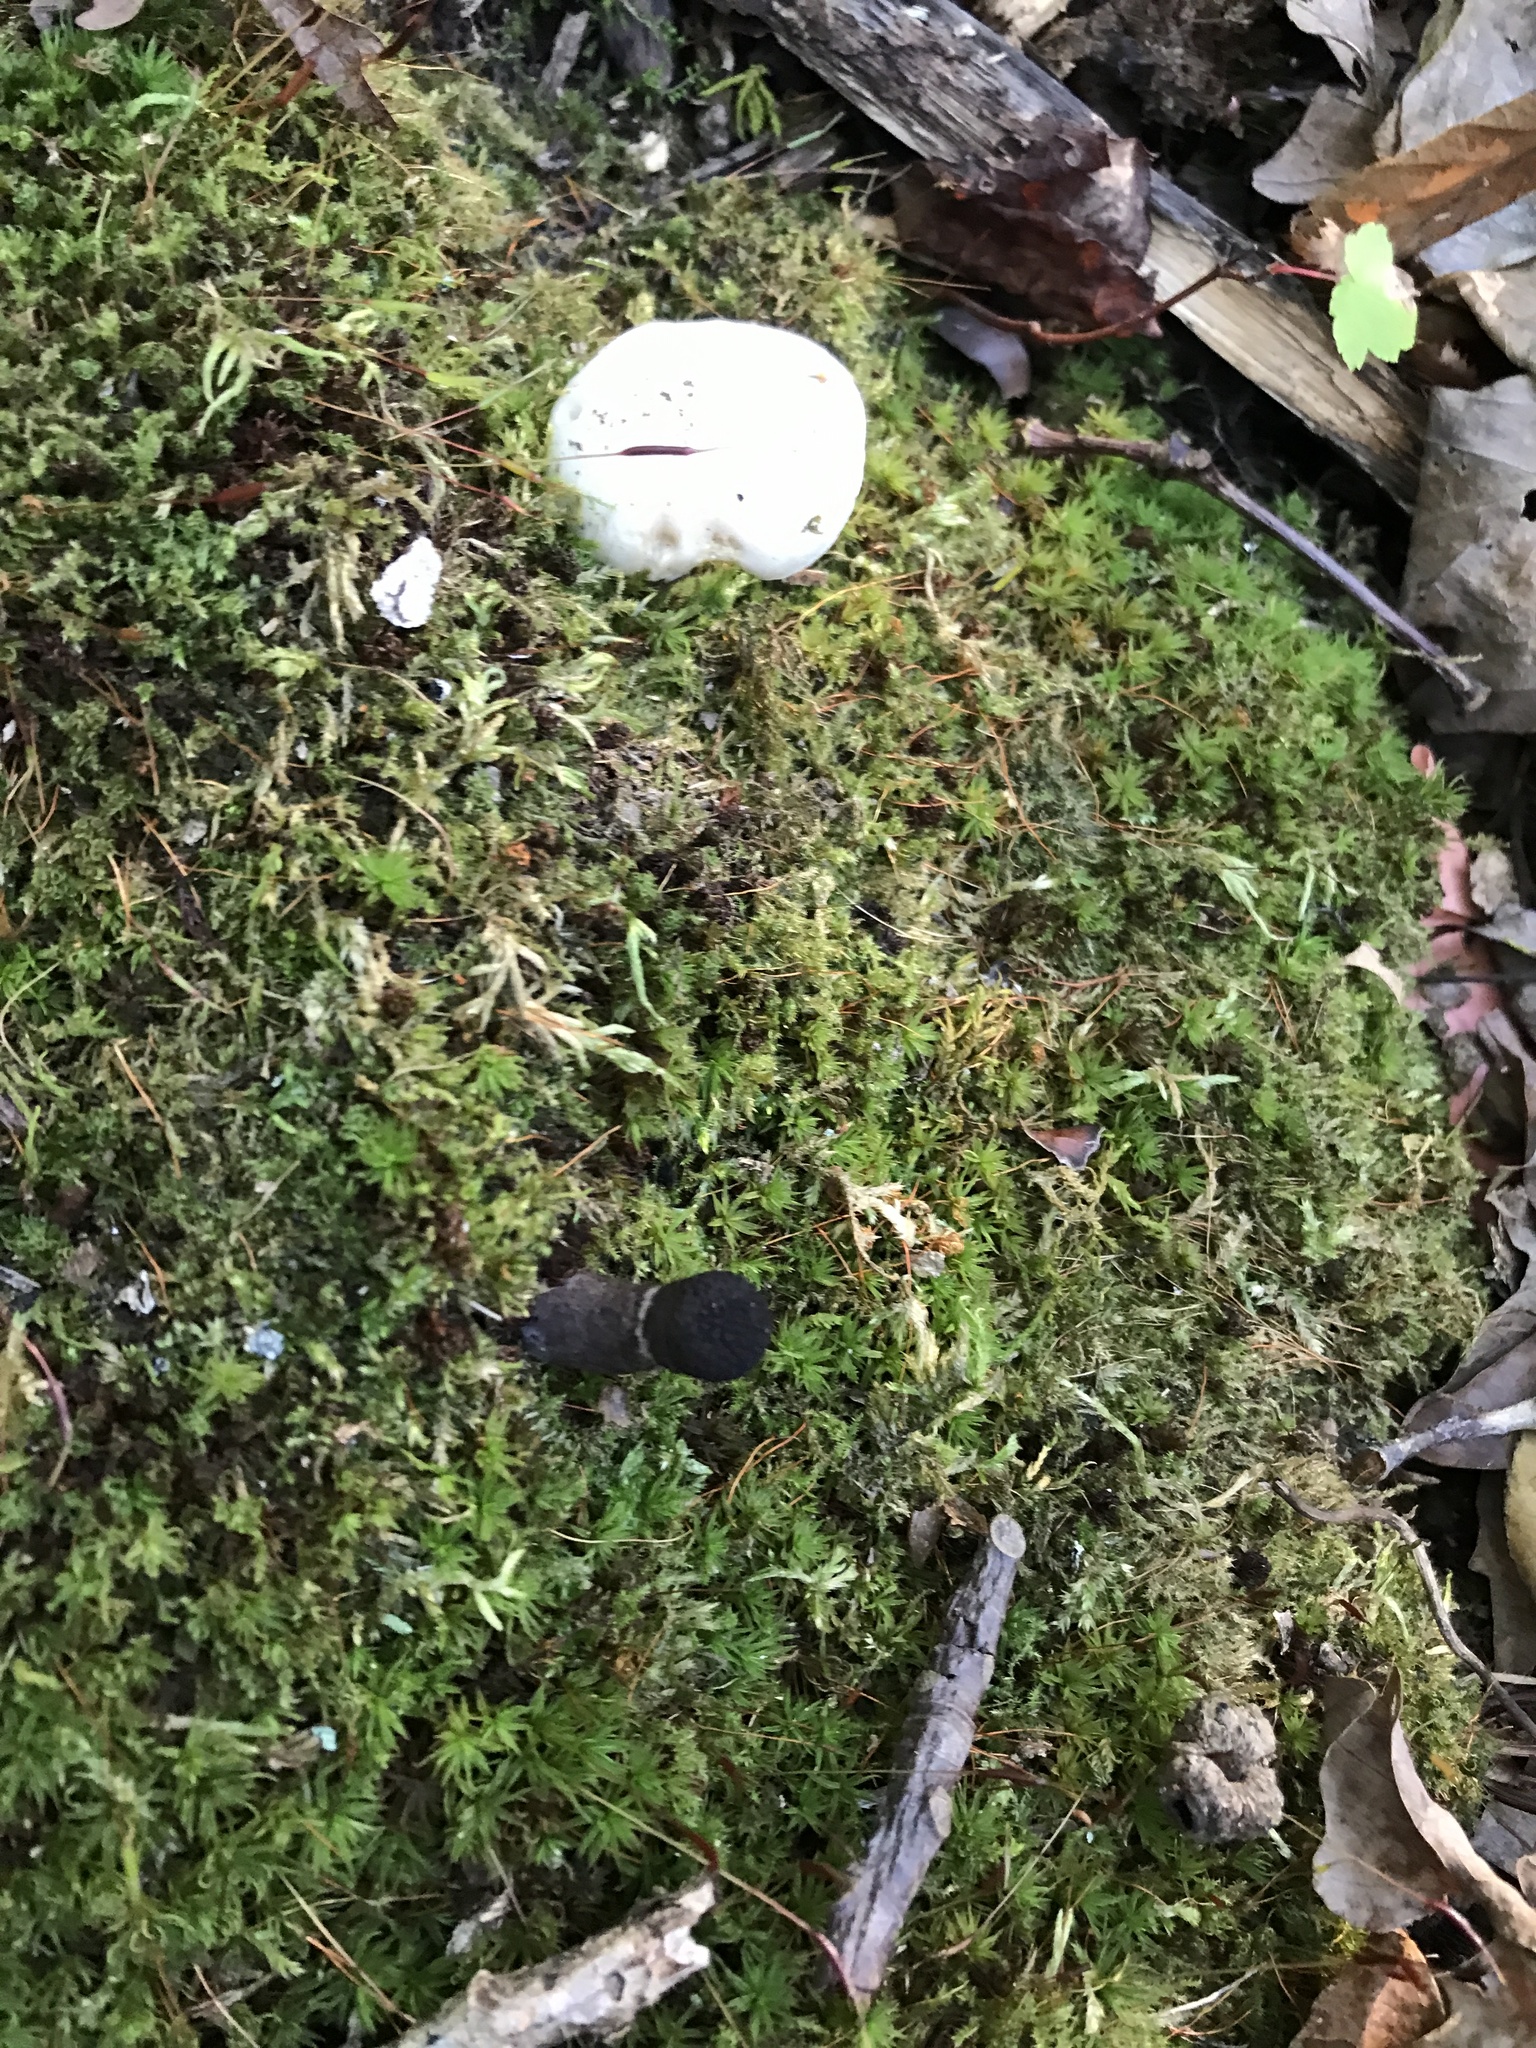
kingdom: Fungi
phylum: Basidiomycota
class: Agaricomycetes
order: Agaricales
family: Tricholomataceae
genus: Tricholoma
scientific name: Tricholoma subresplendens
